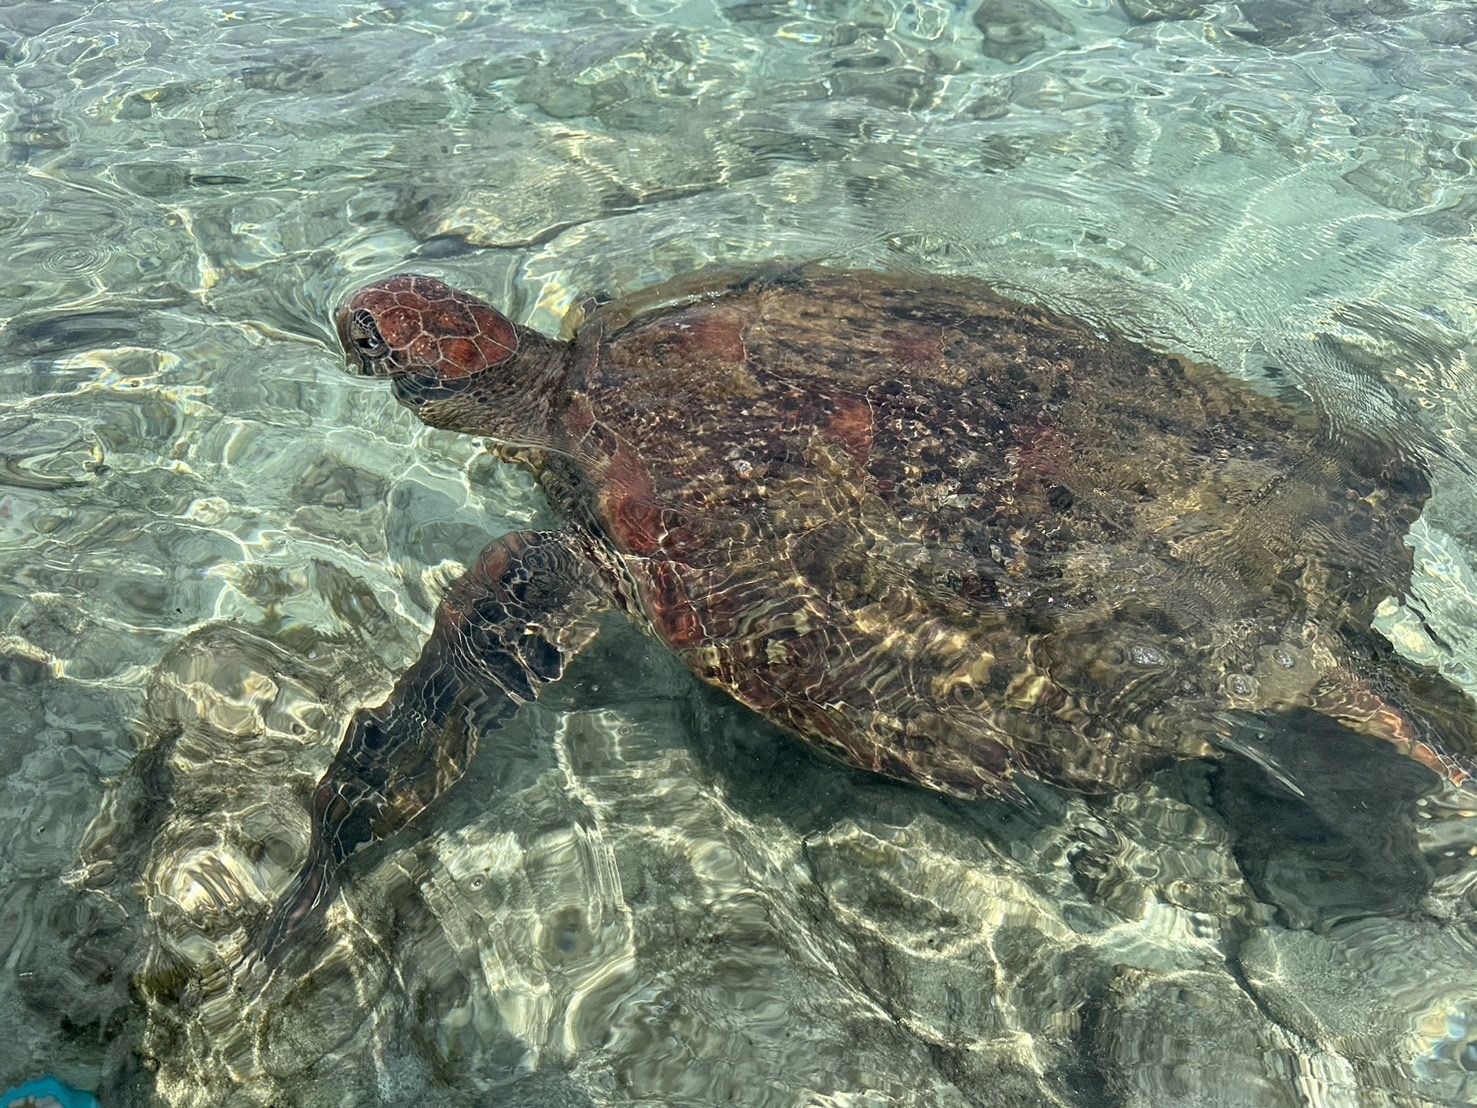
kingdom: Animalia
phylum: Chordata
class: Testudines
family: Cheloniidae
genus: Chelonia
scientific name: Chelonia mydas
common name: Green turtle
